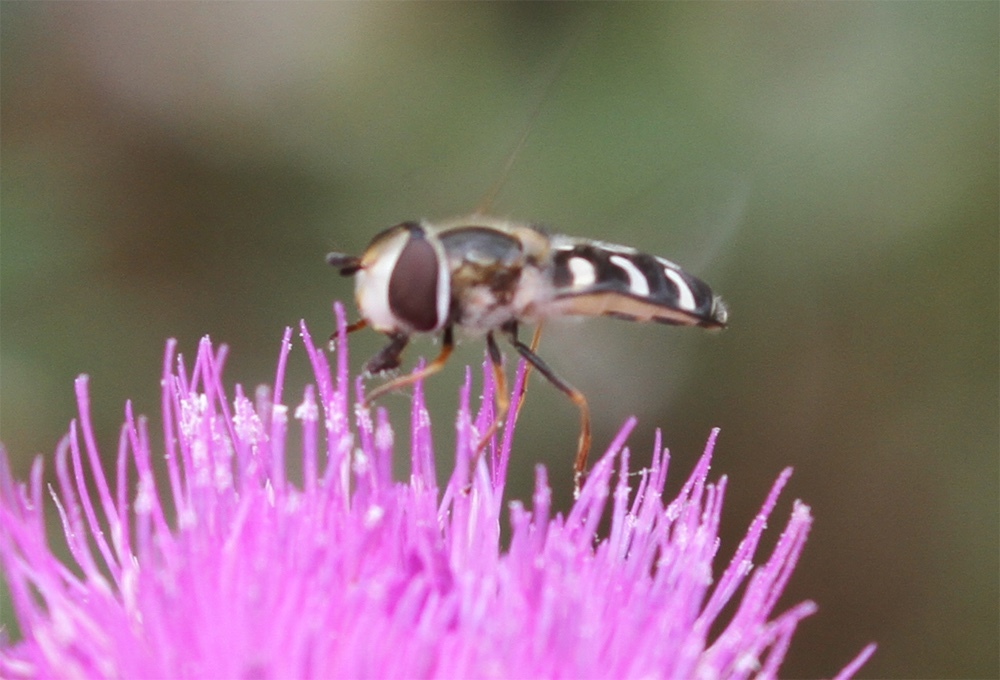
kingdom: Animalia
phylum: Arthropoda
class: Insecta
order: Diptera
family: Syrphidae
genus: Scaeva
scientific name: Scaeva pyrastri
